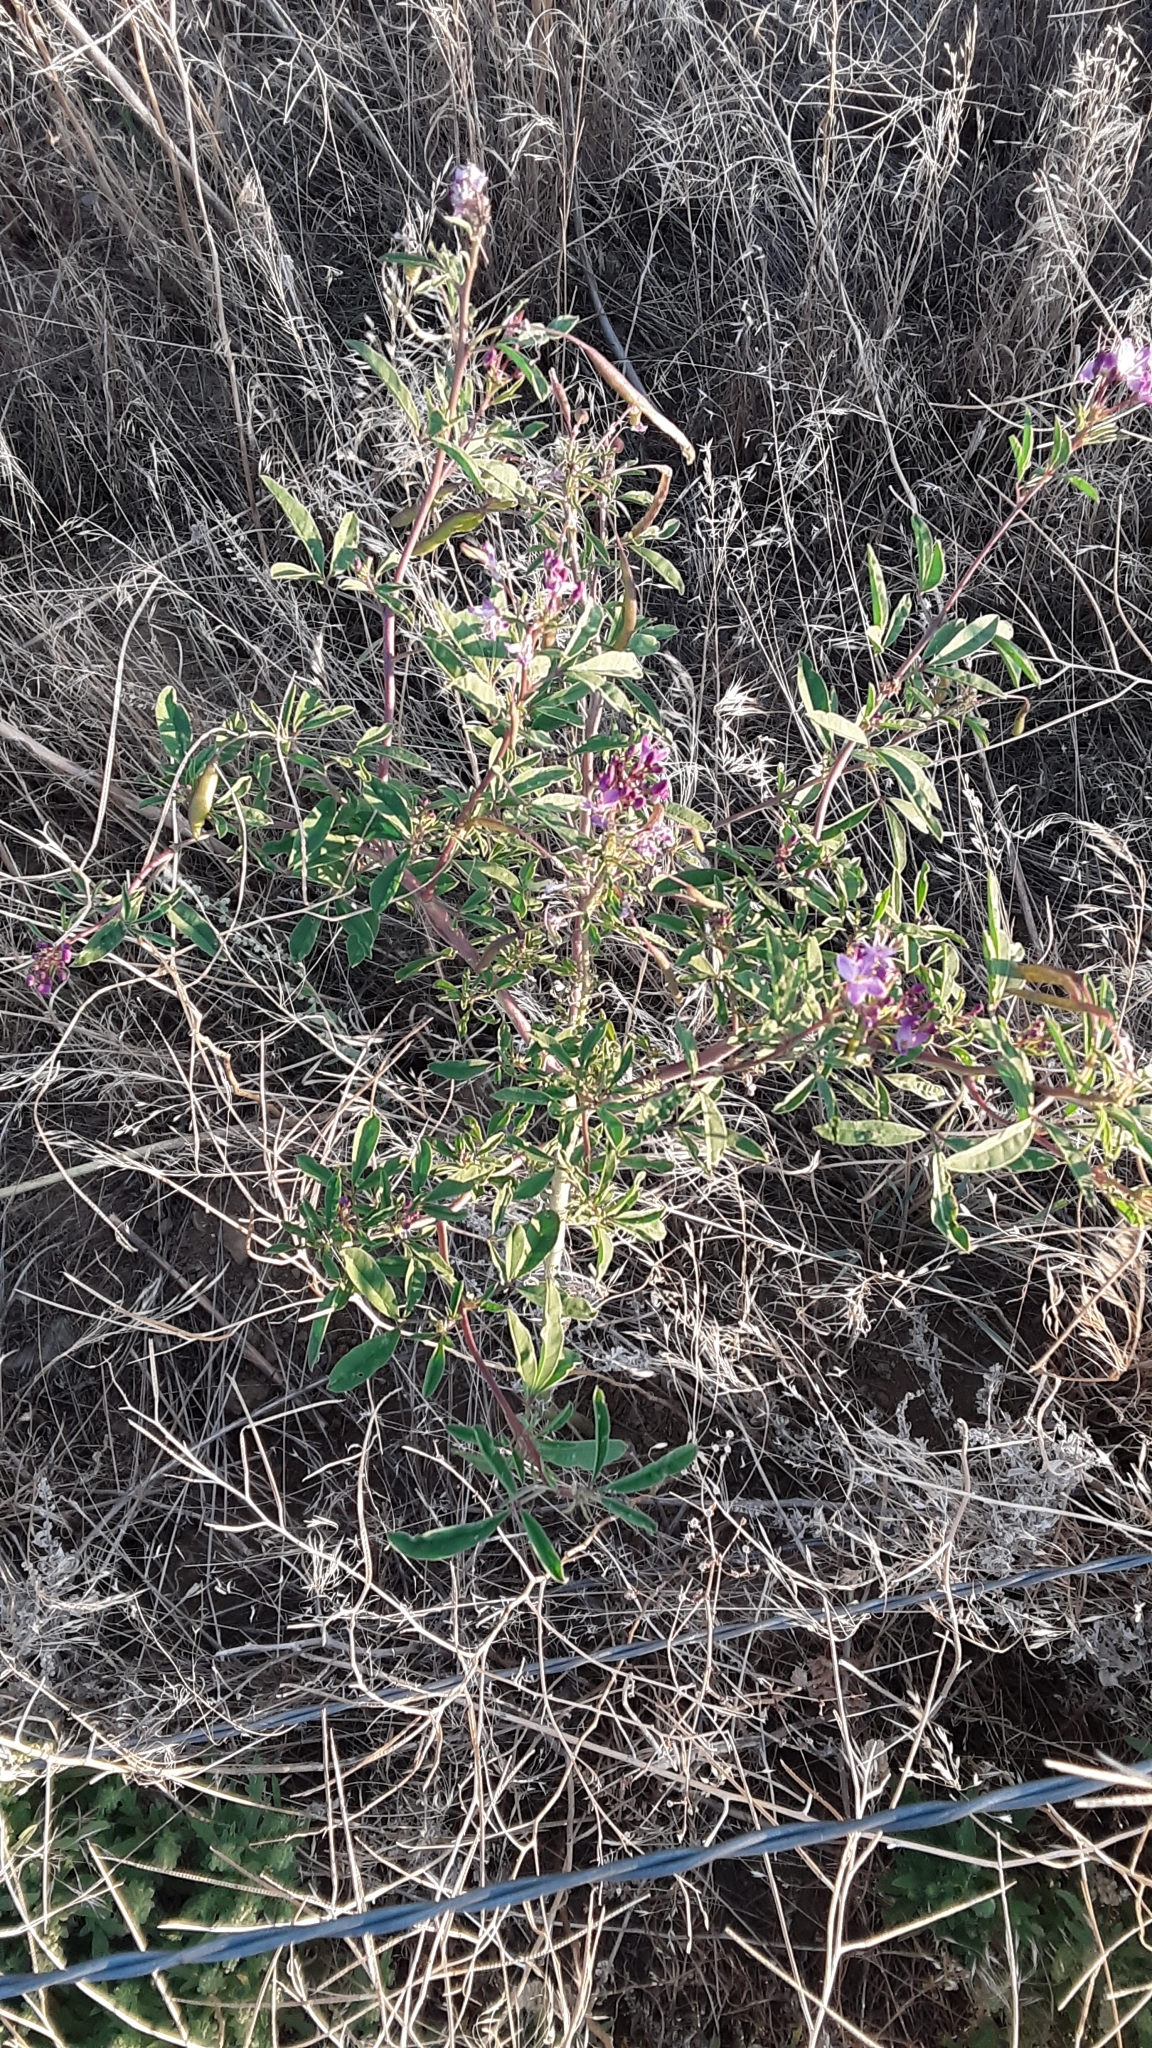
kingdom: Plantae
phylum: Tracheophyta
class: Magnoliopsida
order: Brassicales
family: Cleomaceae
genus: Cleomella
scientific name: Cleomella serrulata
